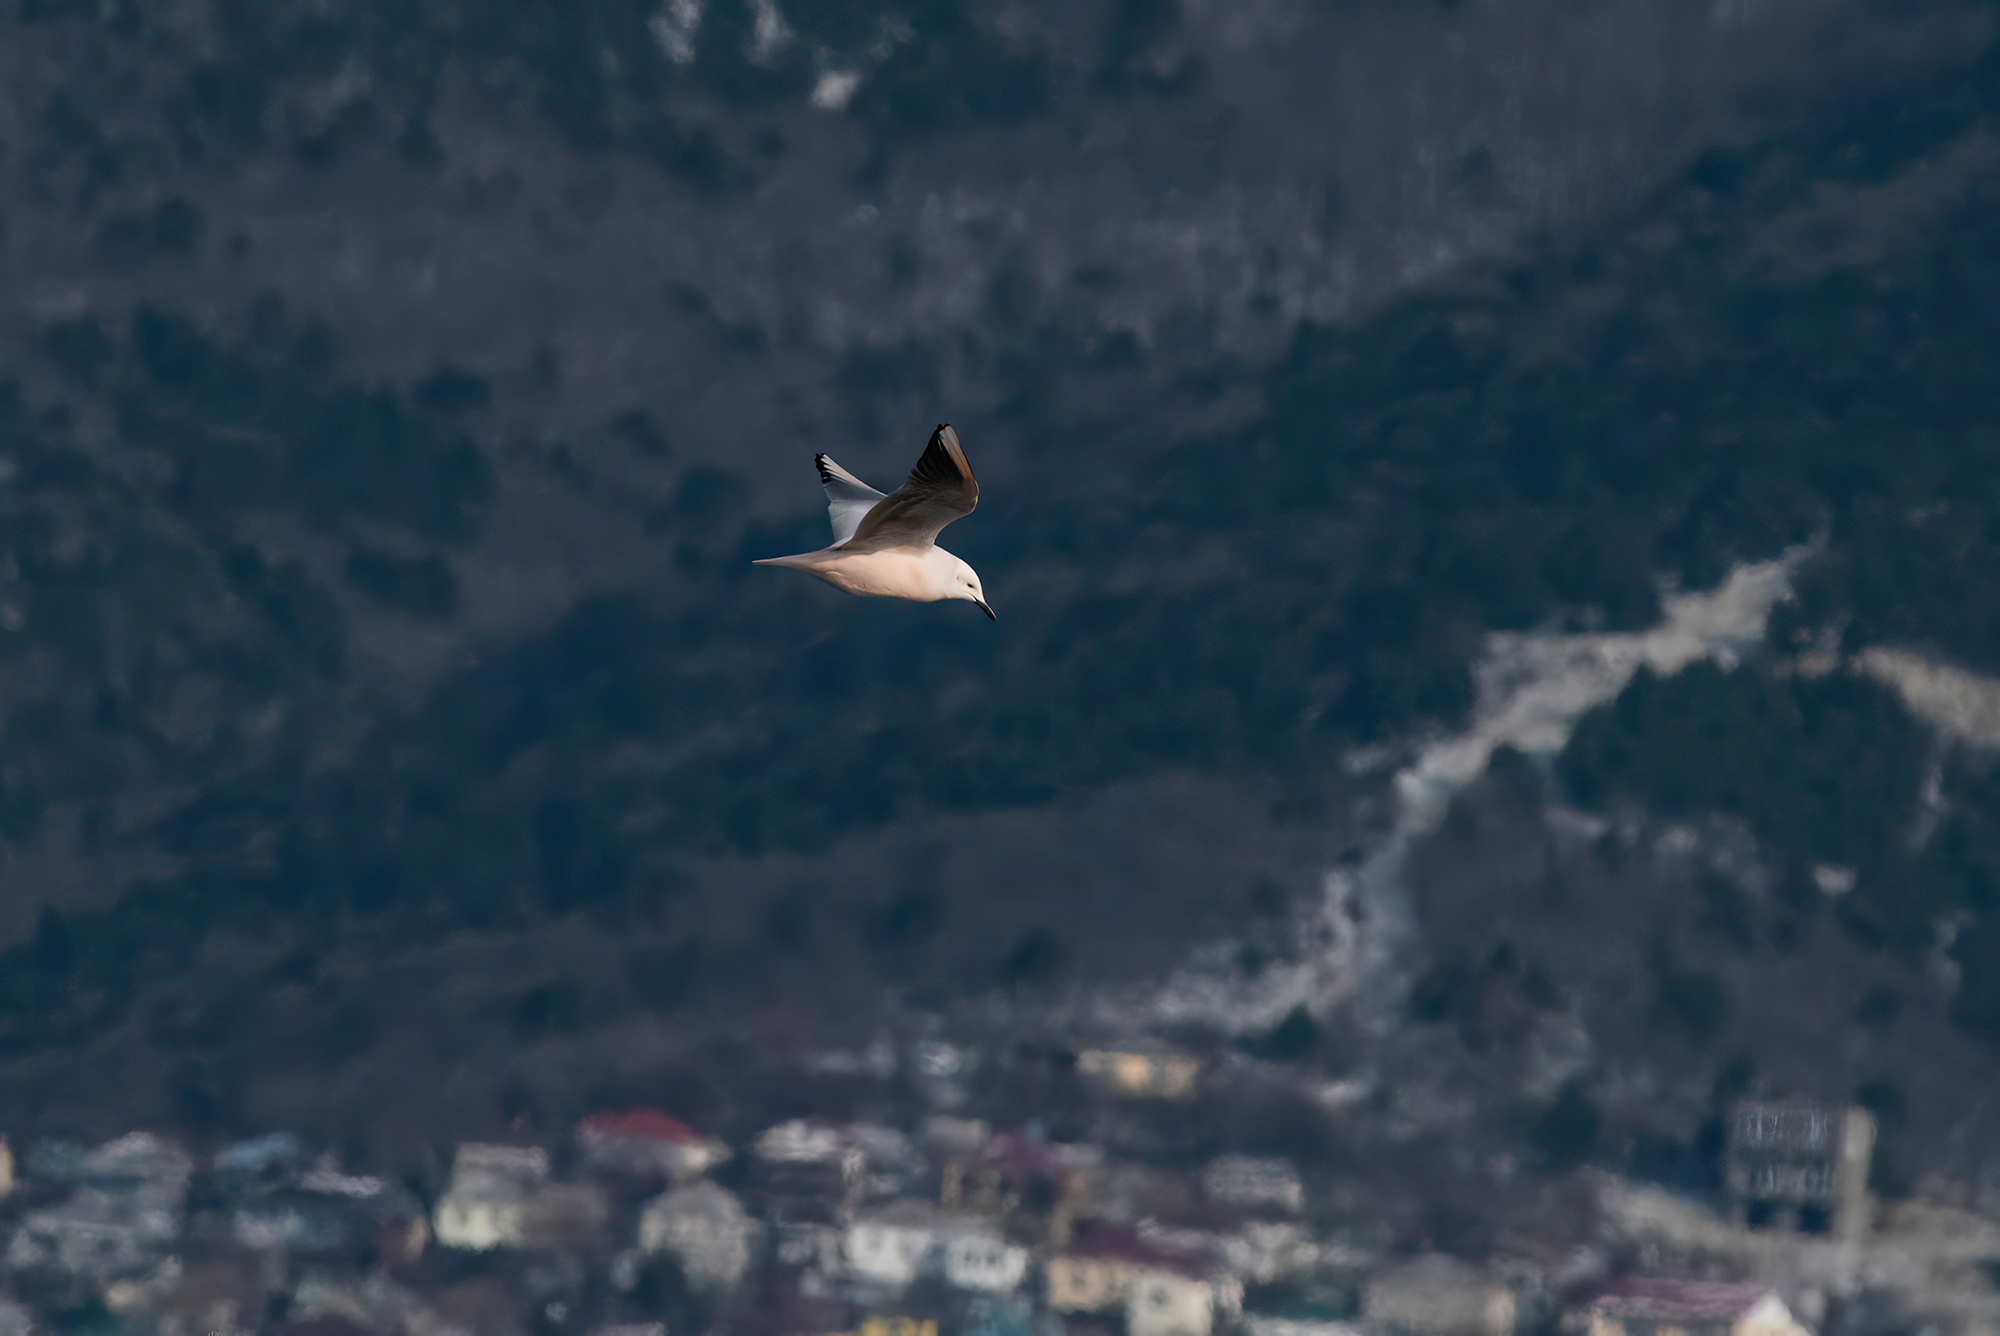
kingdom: Animalia
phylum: Chordata
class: Aves
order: Charadriiformes
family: Laridae
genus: Chroicocephalus
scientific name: Chroicocephalus genei
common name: Slender-billed gull
